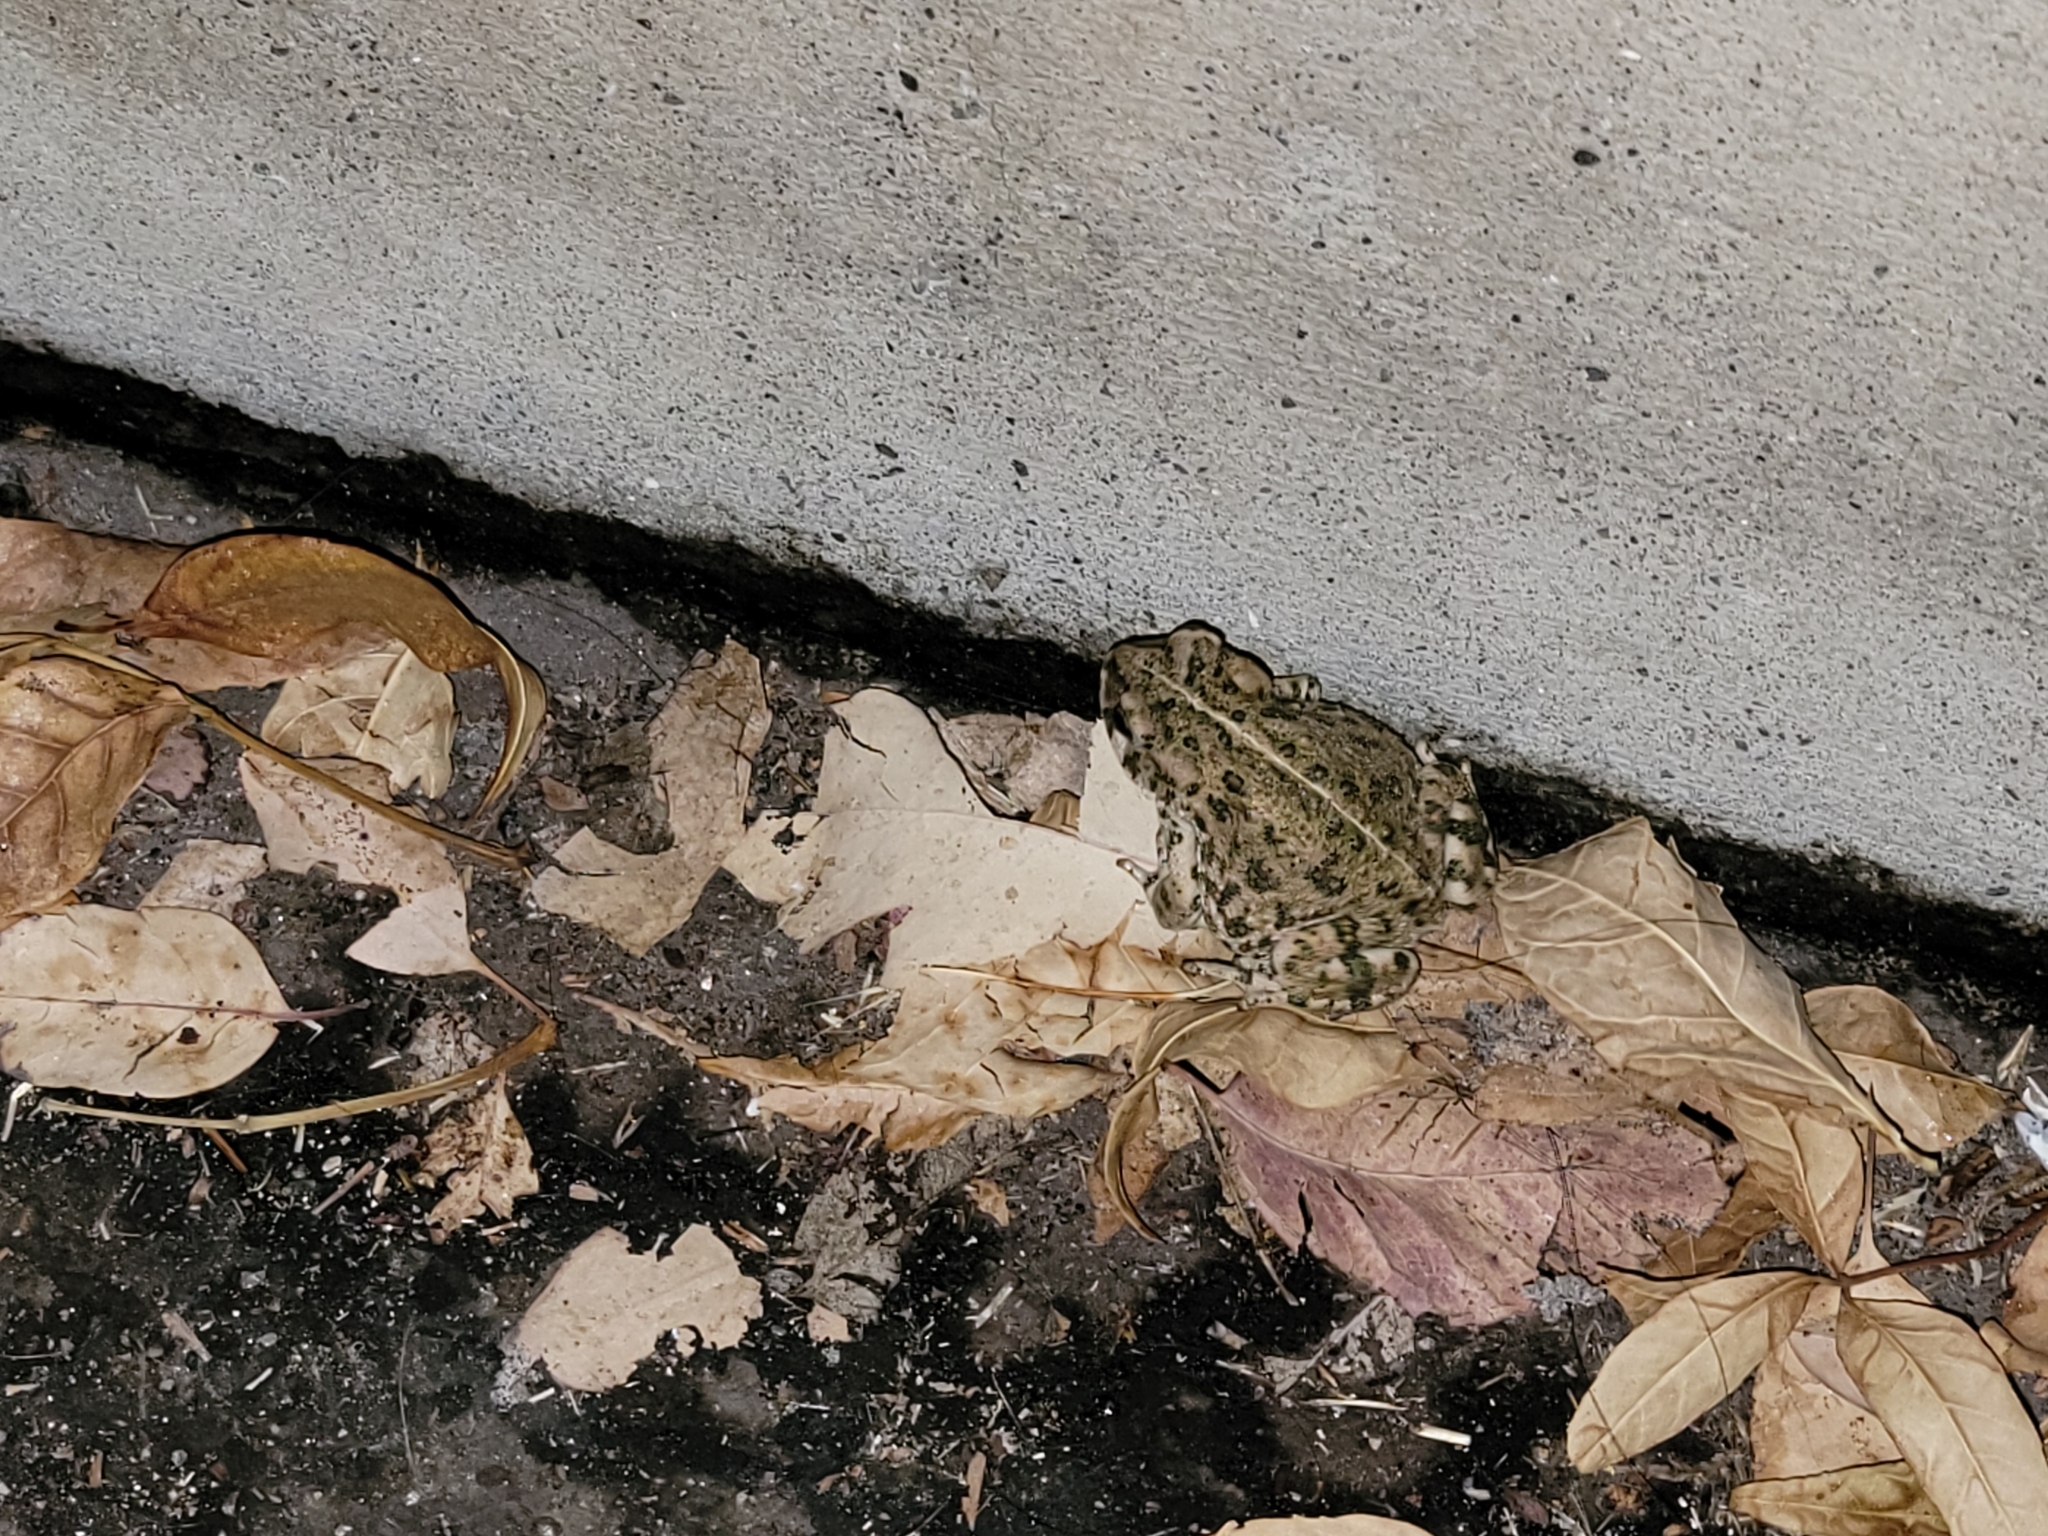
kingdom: Animalia
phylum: Chordata
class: Amphibia
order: Anura
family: Bufonidae
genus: Anaxyrus
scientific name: Anaxyrus boreas
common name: Western toad
